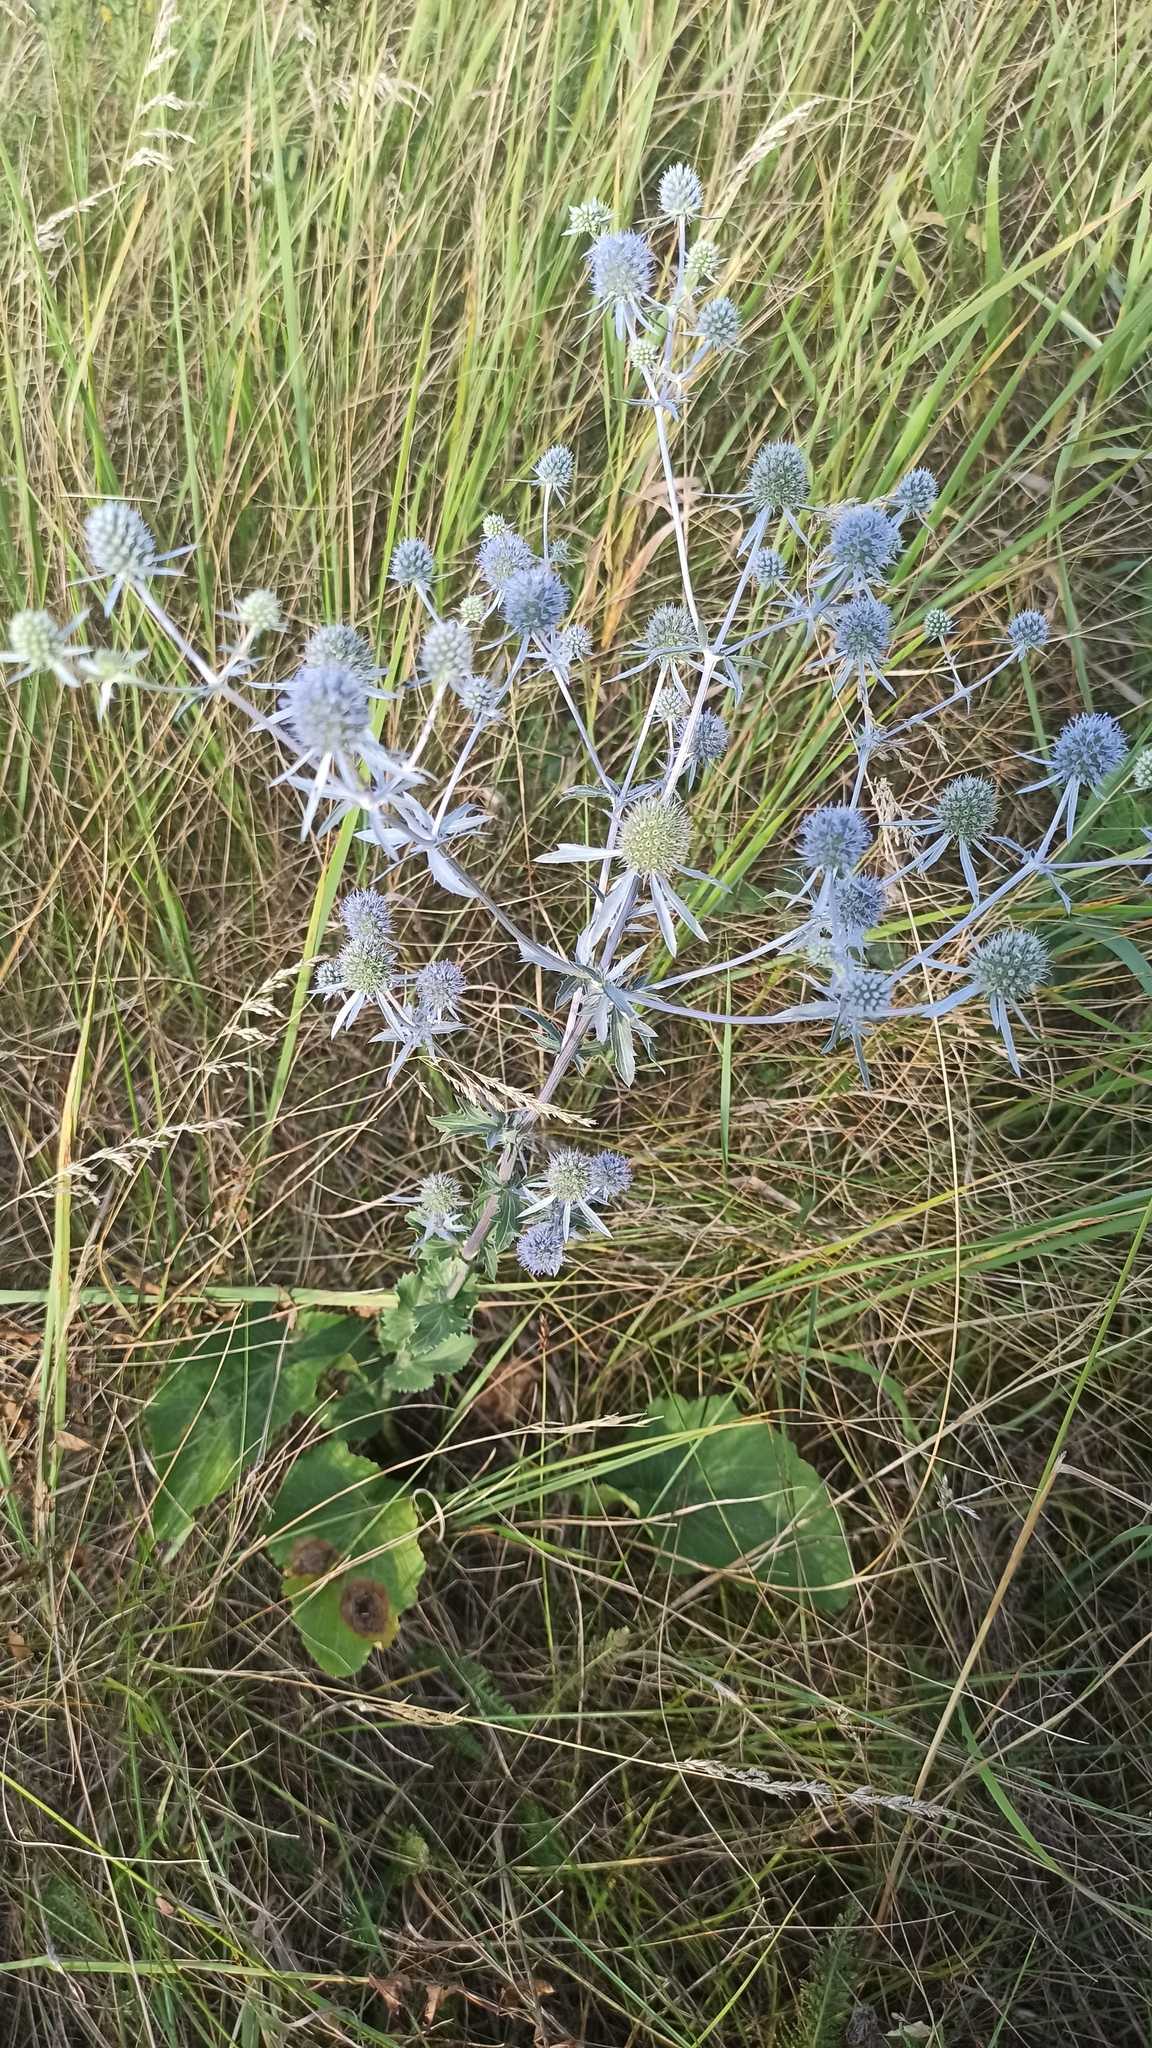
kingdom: Plantae
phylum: Tracheophyta
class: Magnoliopsida
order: Apiales
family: Apiaceae
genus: Eryngium
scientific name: Eryngium planum
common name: Blue eryngo
